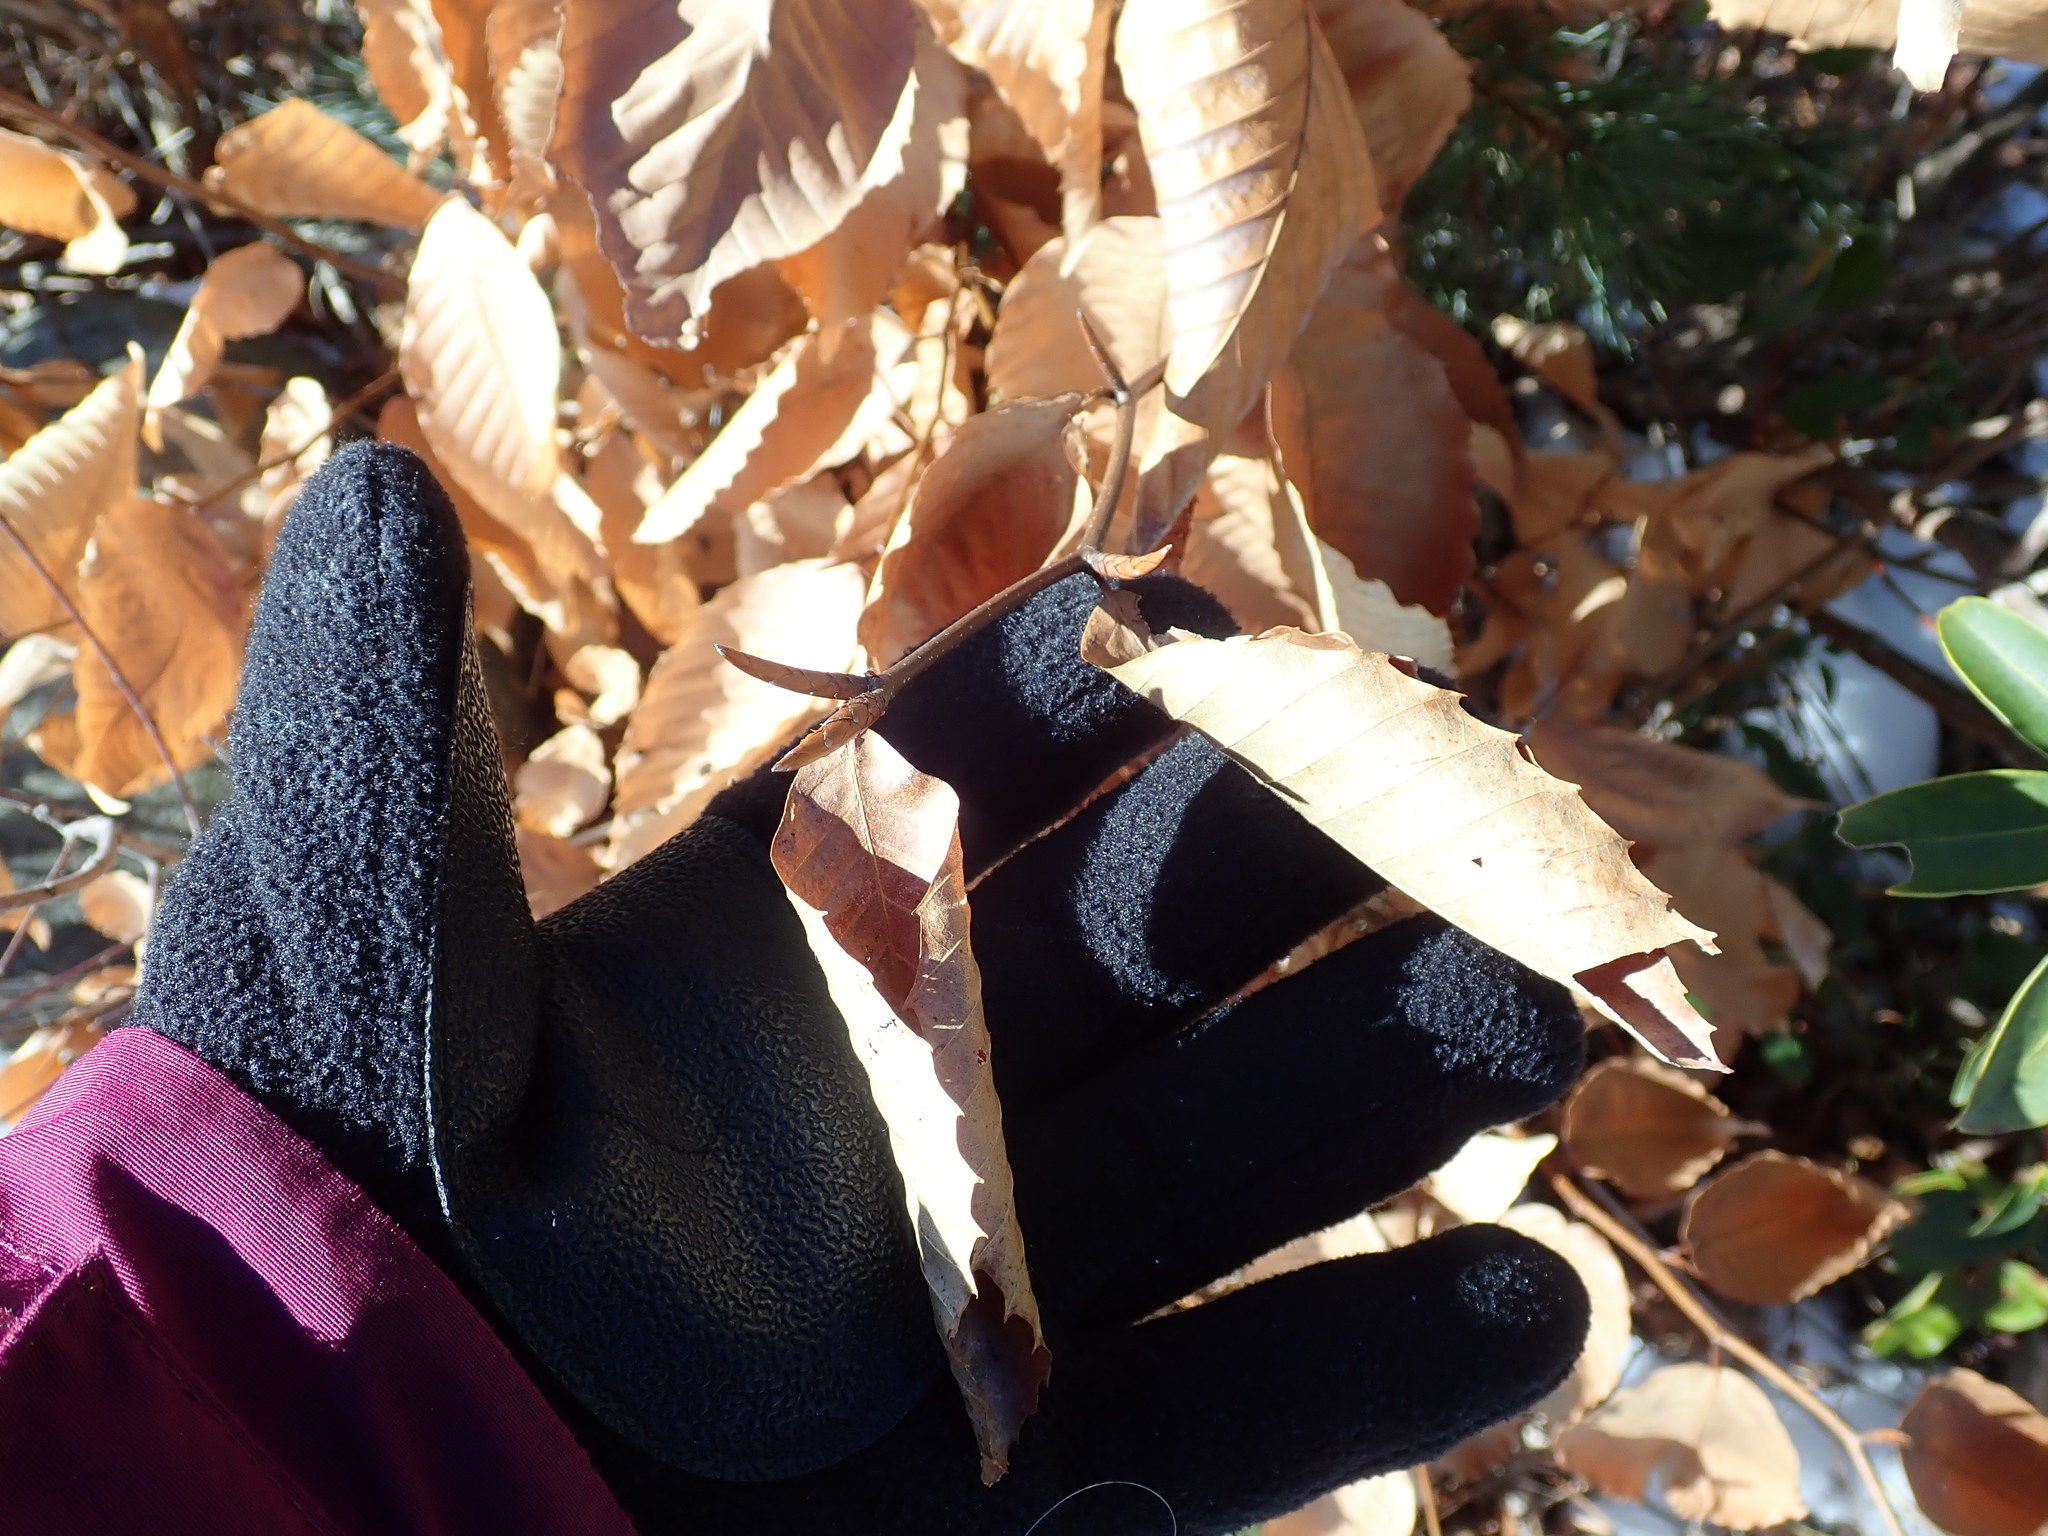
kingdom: Plantae
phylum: Tracheophyta
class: Magnoliopsida
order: Fagales
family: Fagaceae
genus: Fagus
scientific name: Fagus grandifolia
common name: American beech
